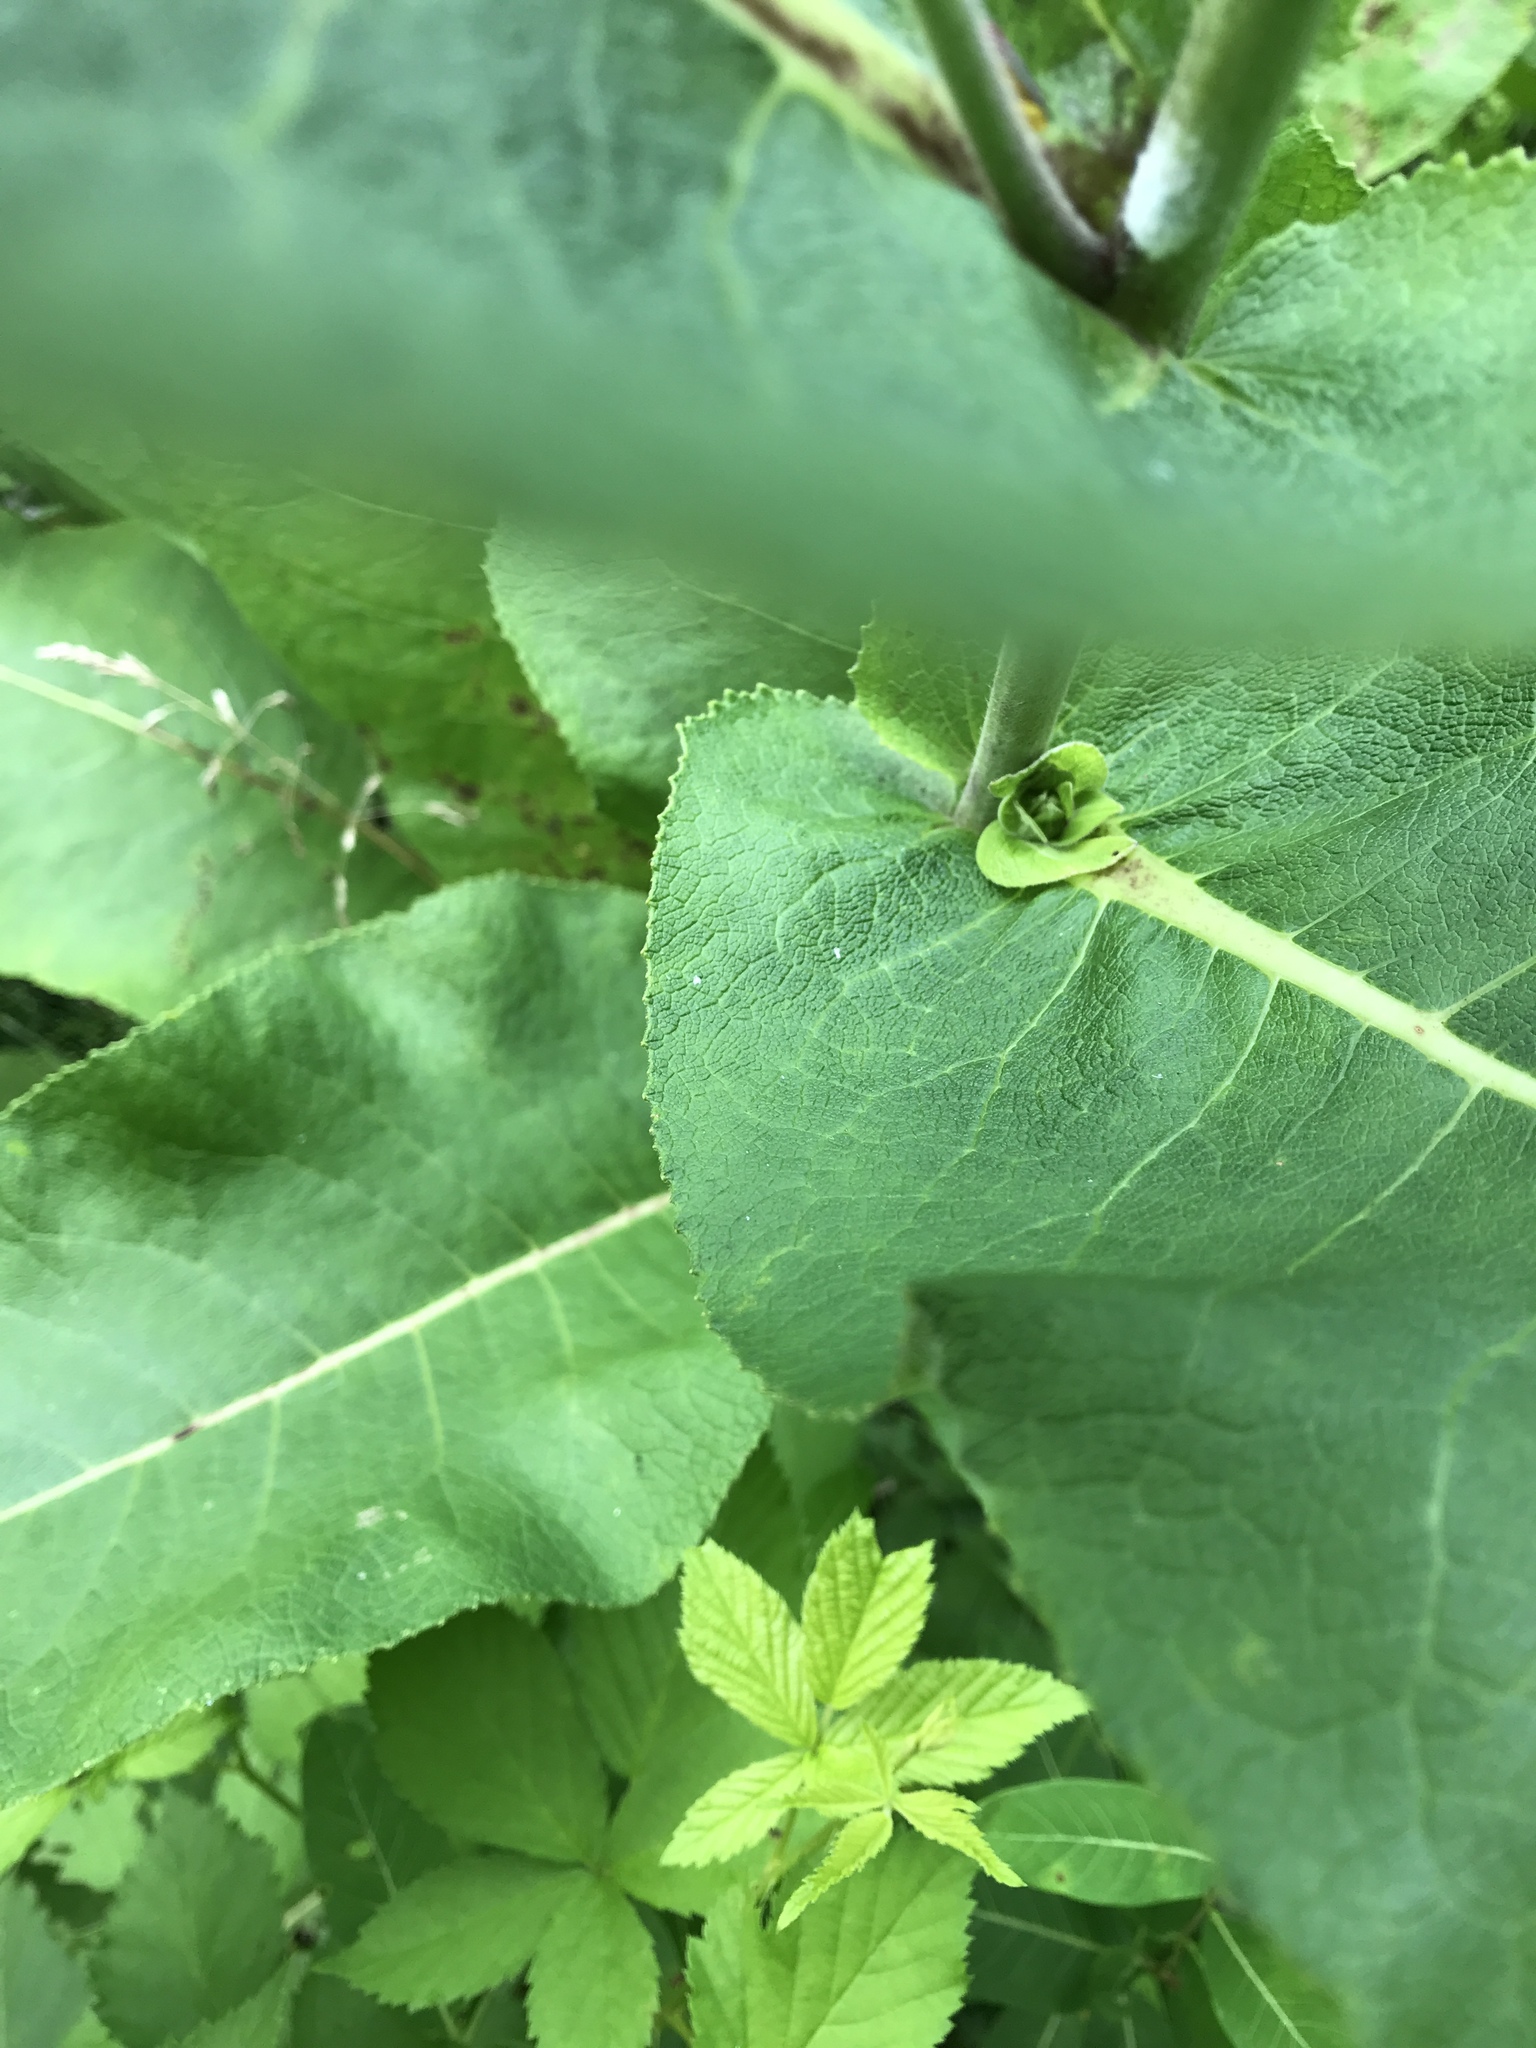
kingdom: Plantae
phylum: Tracheophyta
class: Magnoliopsida
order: Asterales
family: Asteraceae
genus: Inula
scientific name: Inula helenium
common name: Elecampane
